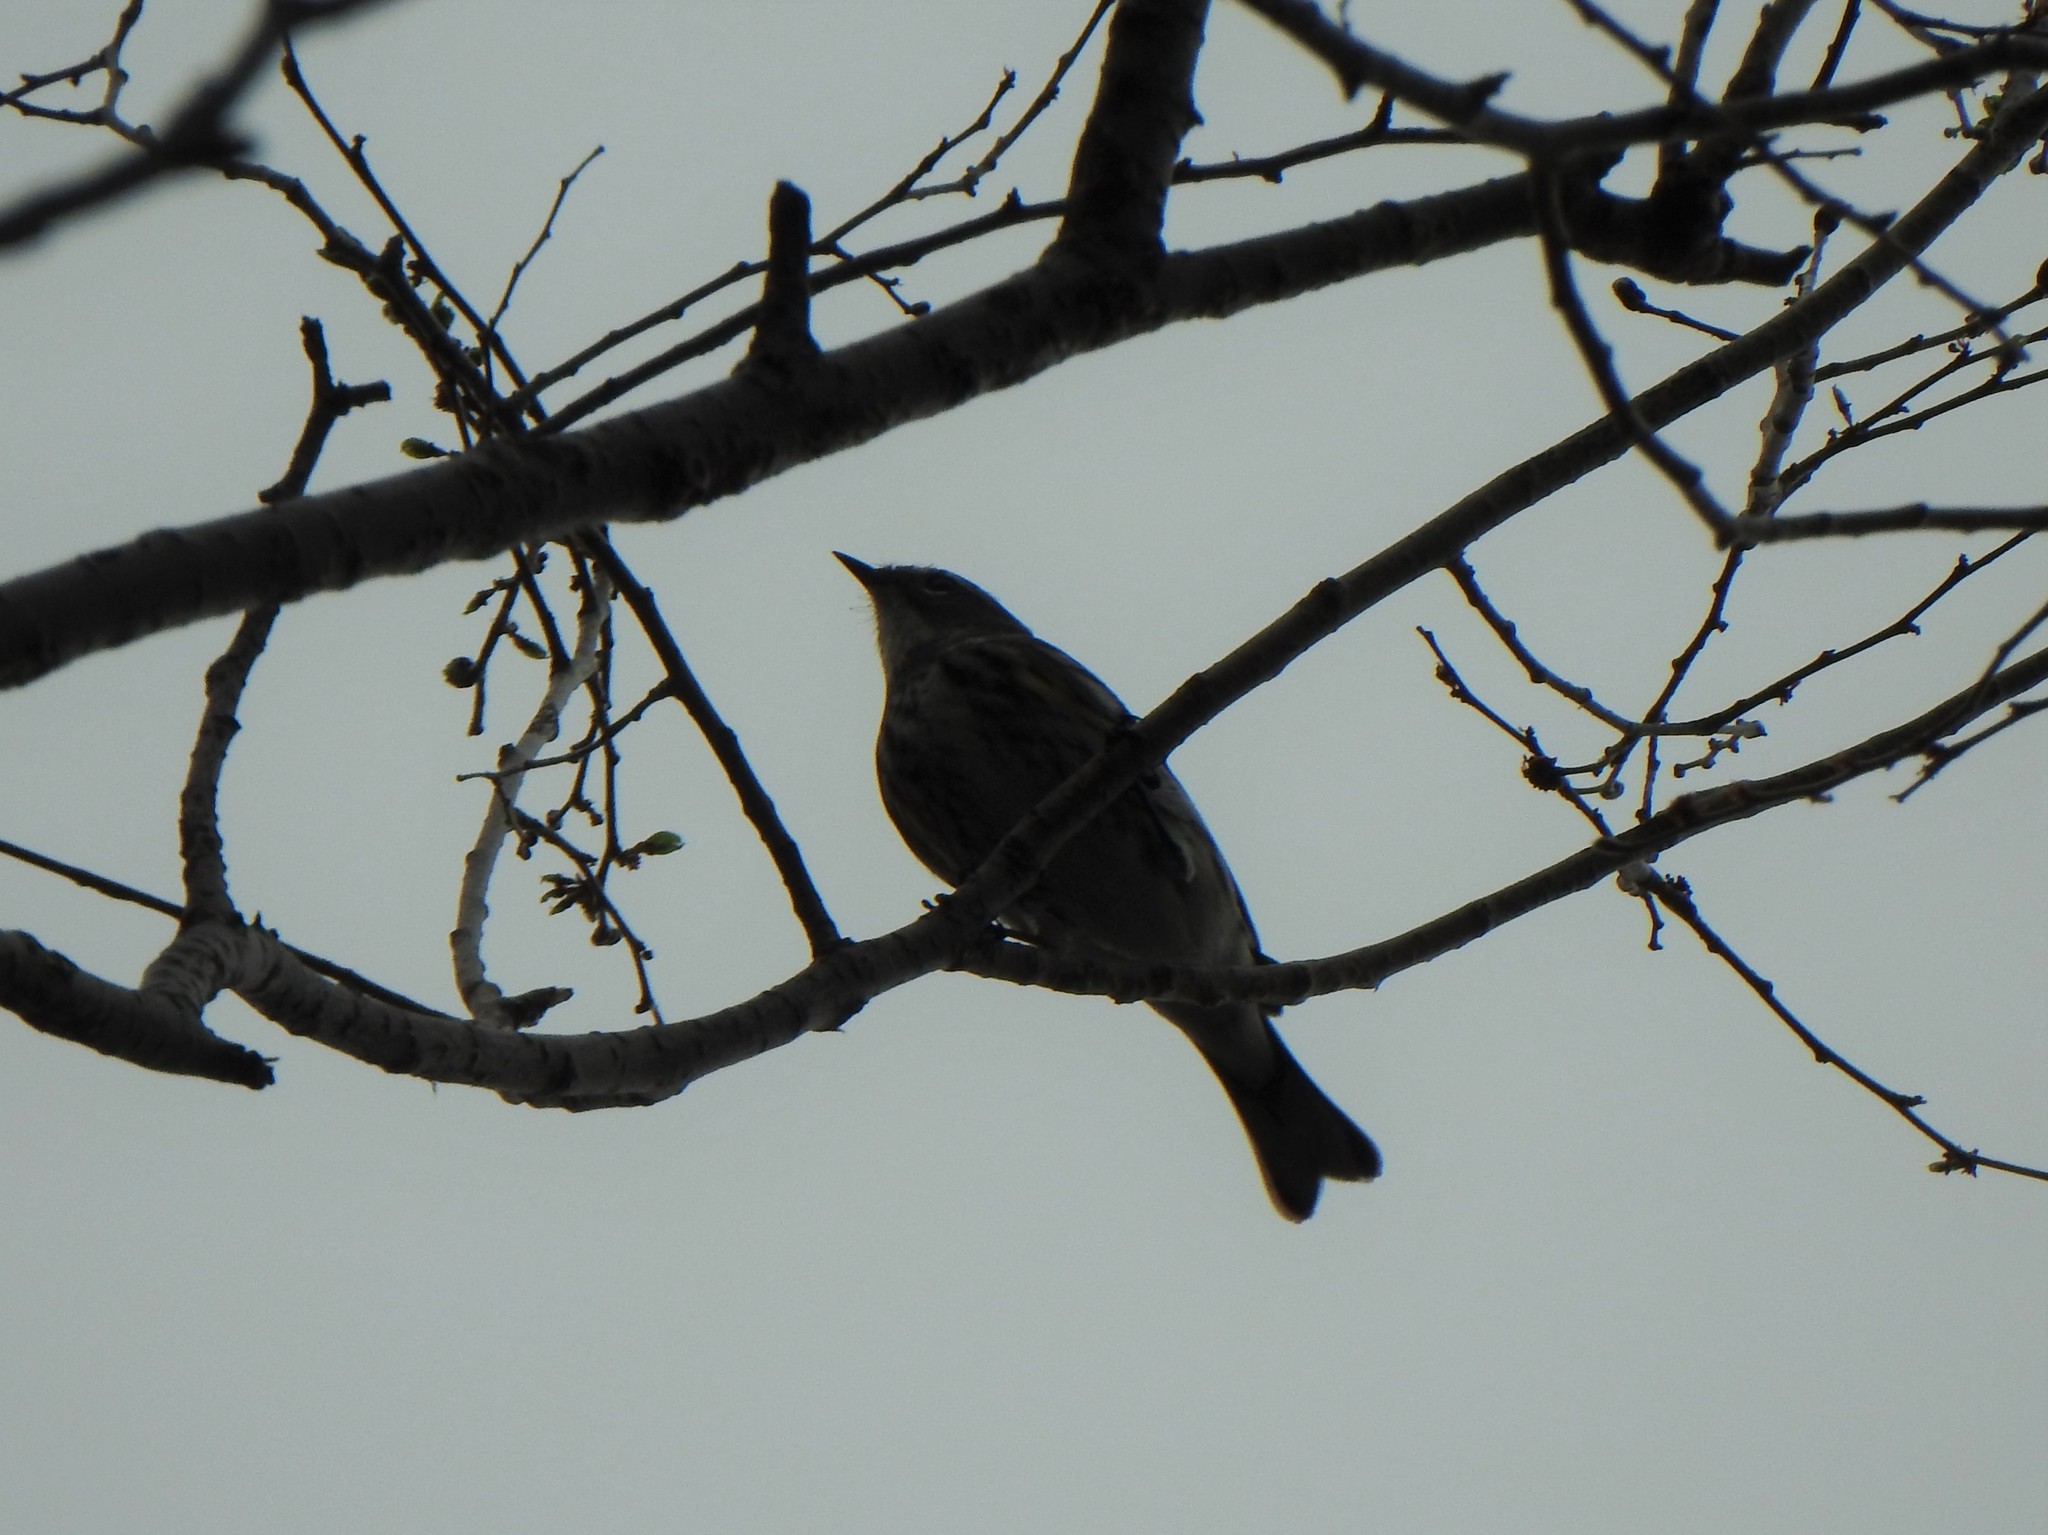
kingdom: Animalia
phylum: Chordata
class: Aves
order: Passeriformes
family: Parulidae
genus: Setophaga
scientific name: Setophaga coronata
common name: Myrtle warbler
